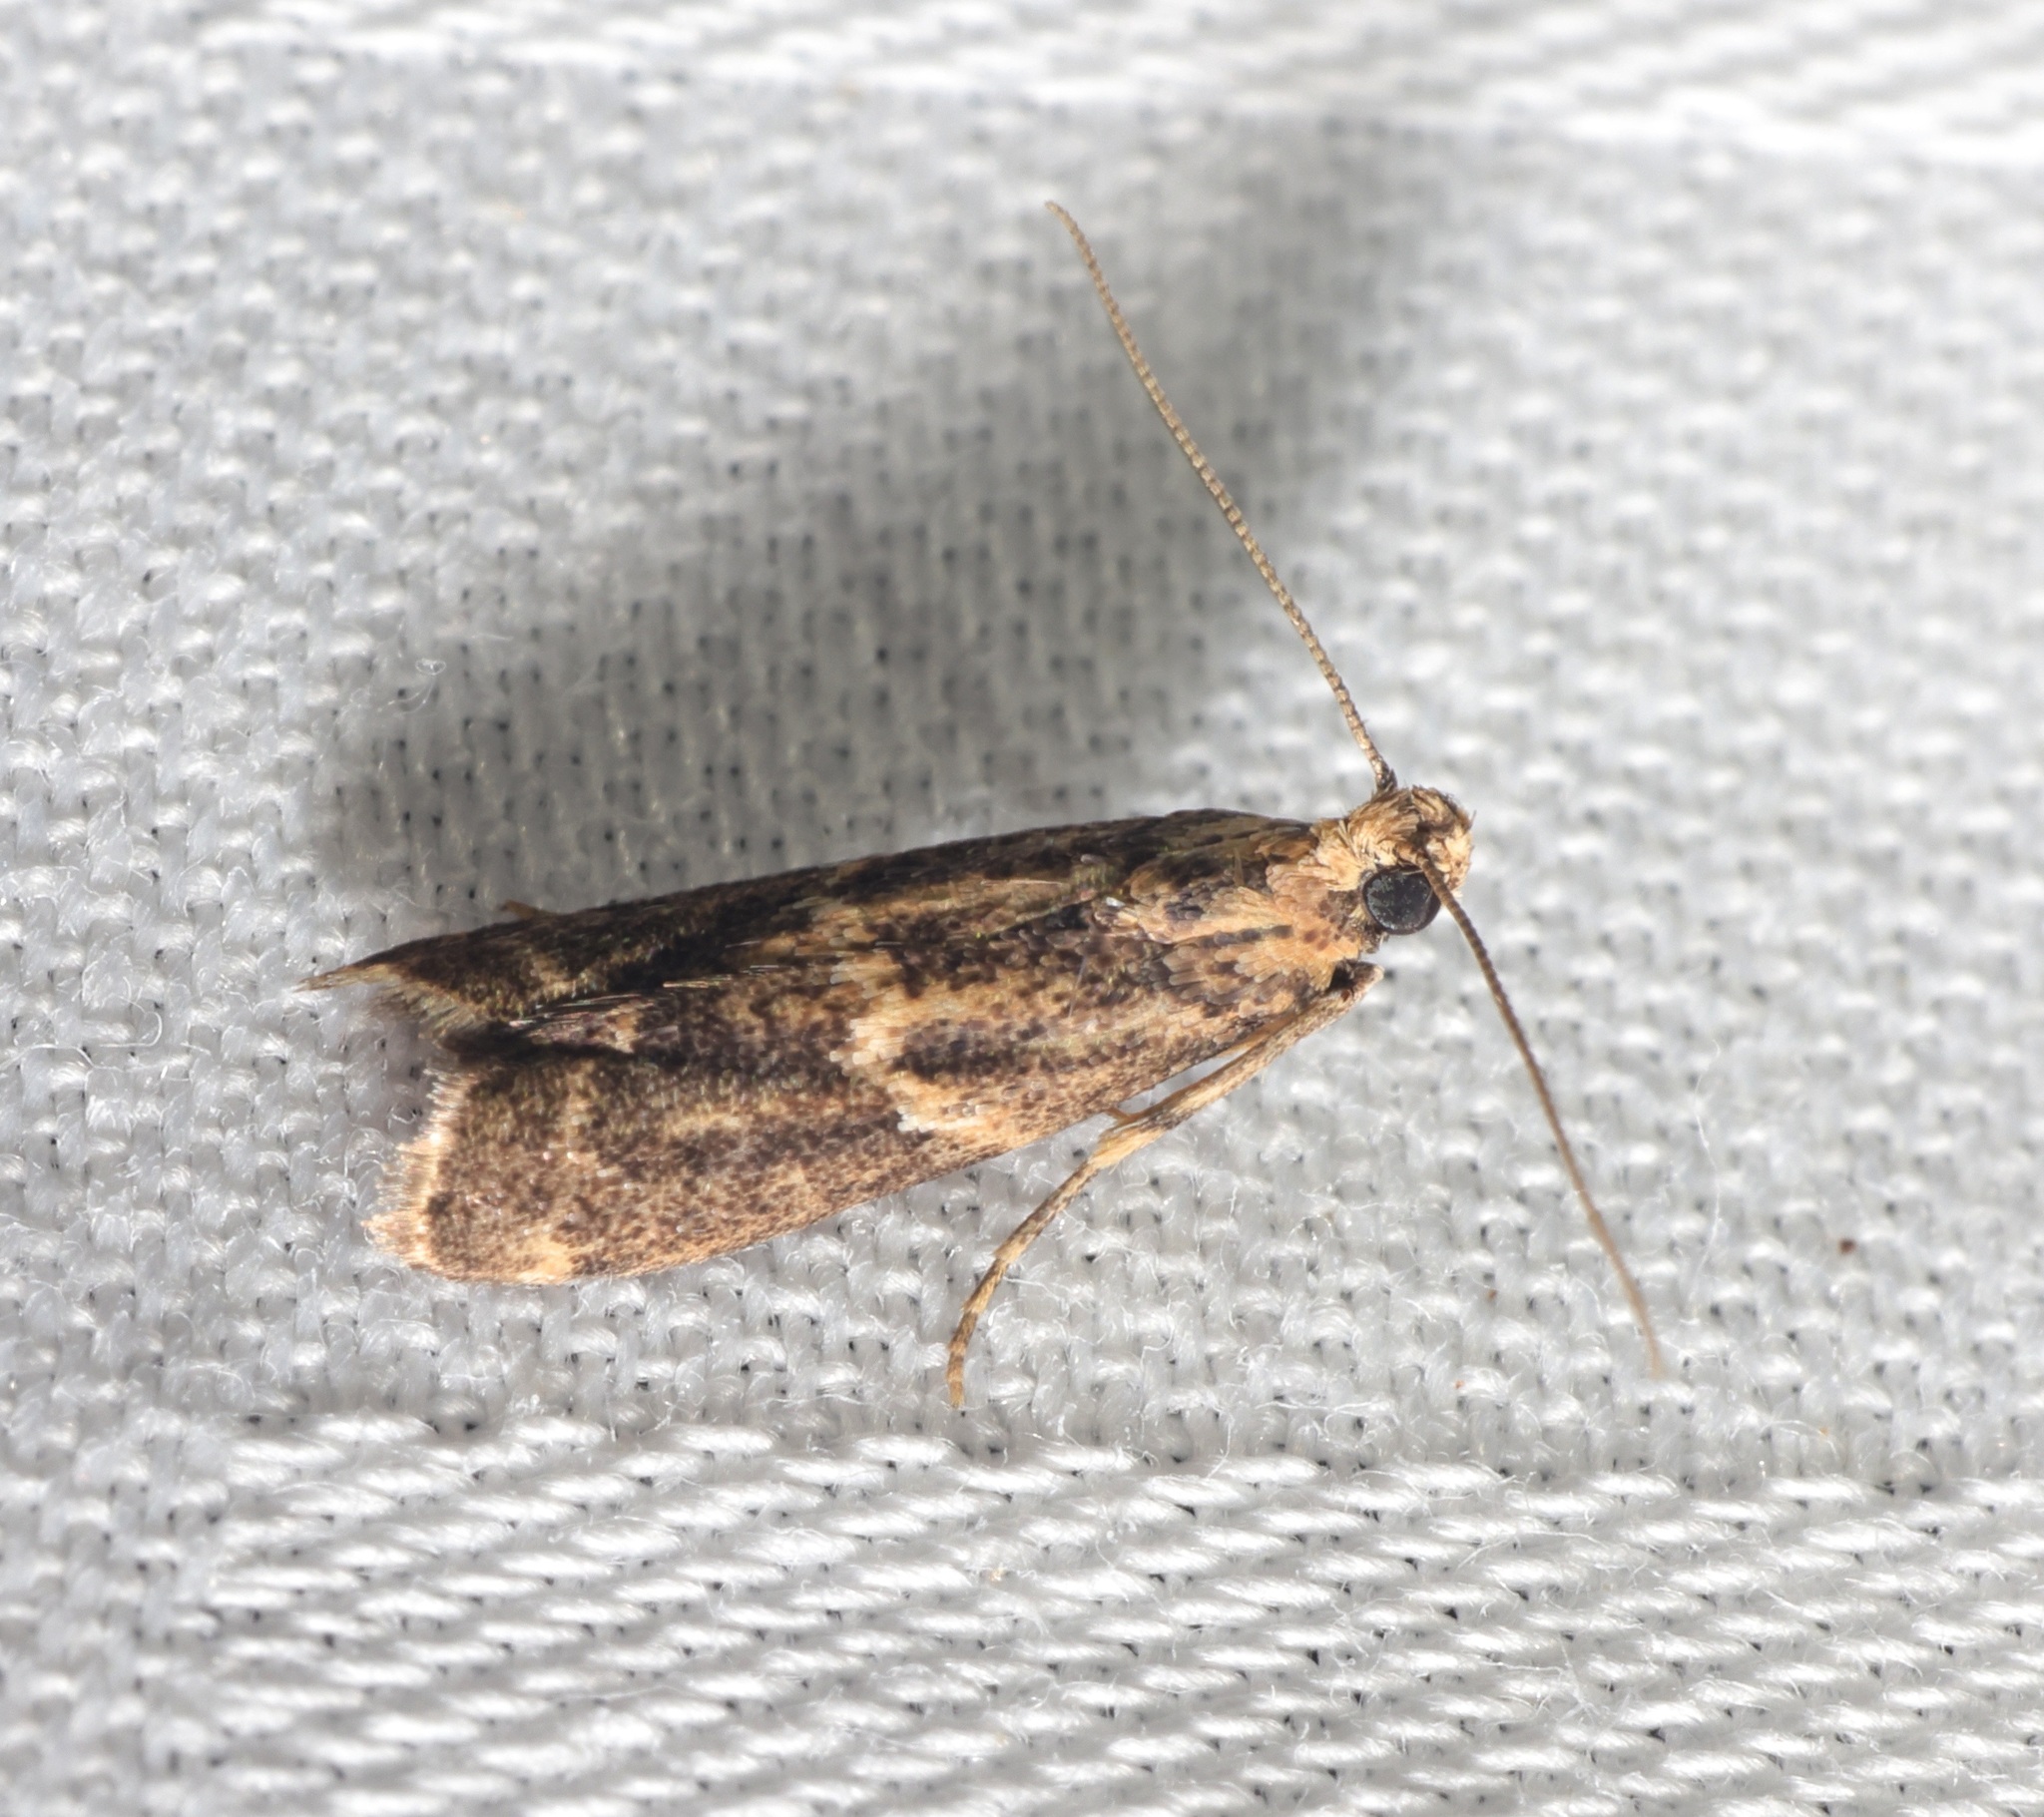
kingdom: Animalia
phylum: Arthropoda
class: Insecta
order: Lepidoptera
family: Pyralidae
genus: Mesciniadia
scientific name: Mesciniadia infractalis
